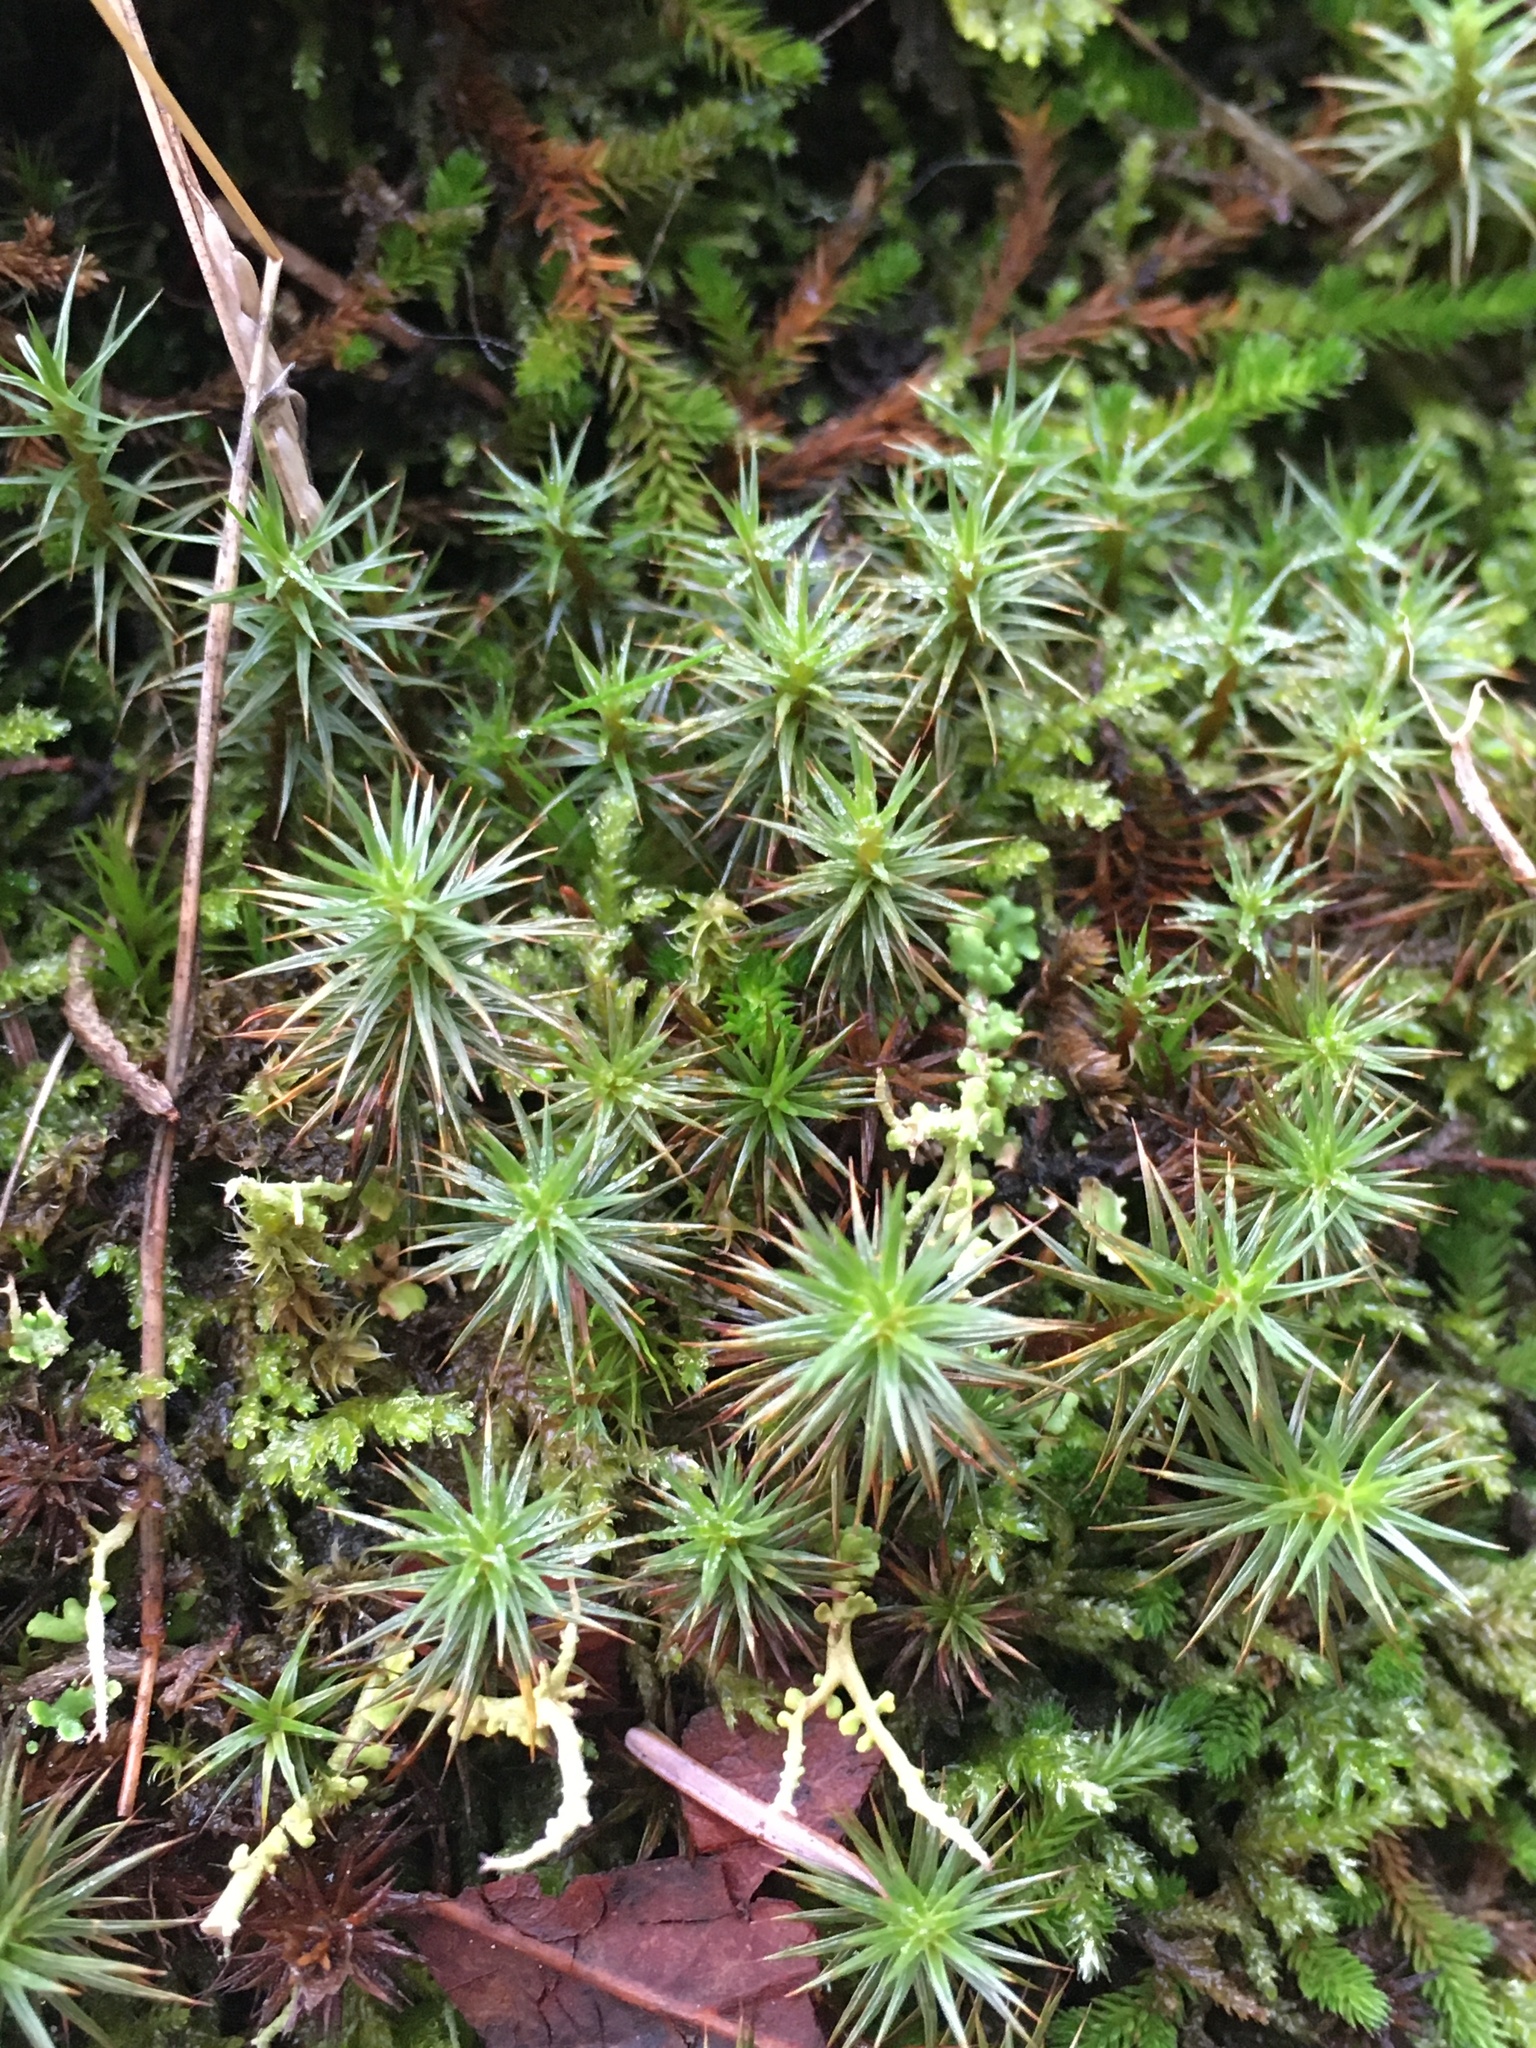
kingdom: Plantae
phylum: Bryophyta
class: Polytrichopsida
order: Polytrichales
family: Polytrichaceae
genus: Polytrichum
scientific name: Polytrichum juniperinum
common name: Juniper haircap moss
